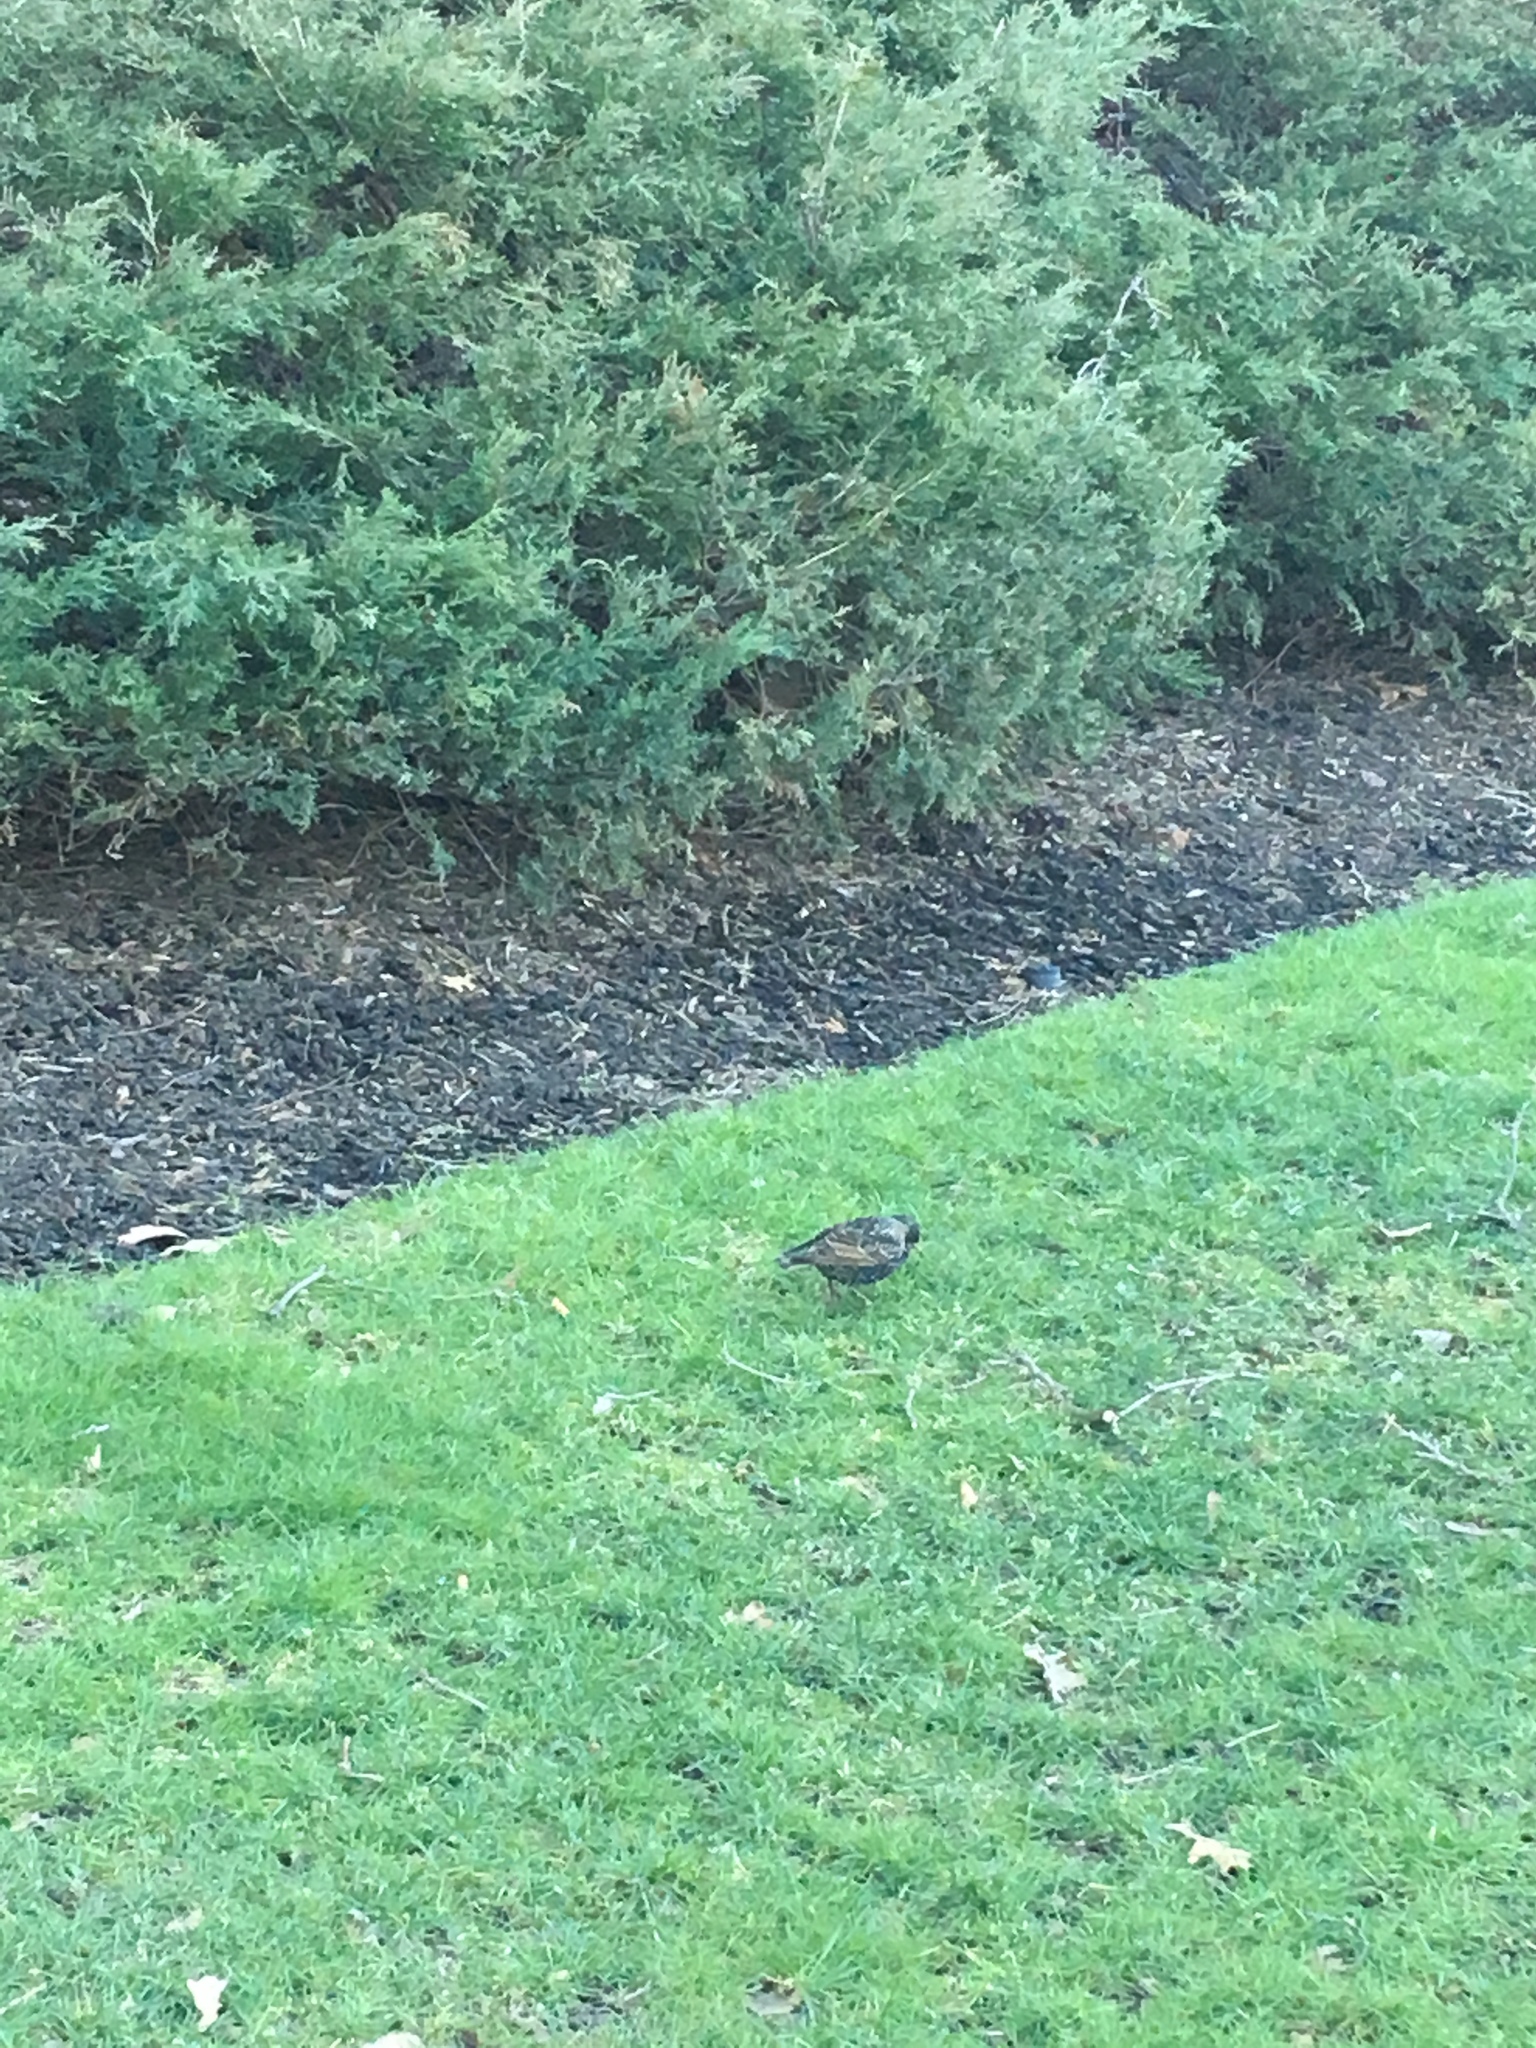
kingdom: Animalia
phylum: Chordata
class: Aves
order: Passeriformes
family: Sturnidae
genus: Sturnus
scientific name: Sturnus vulgaris
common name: Common starling
